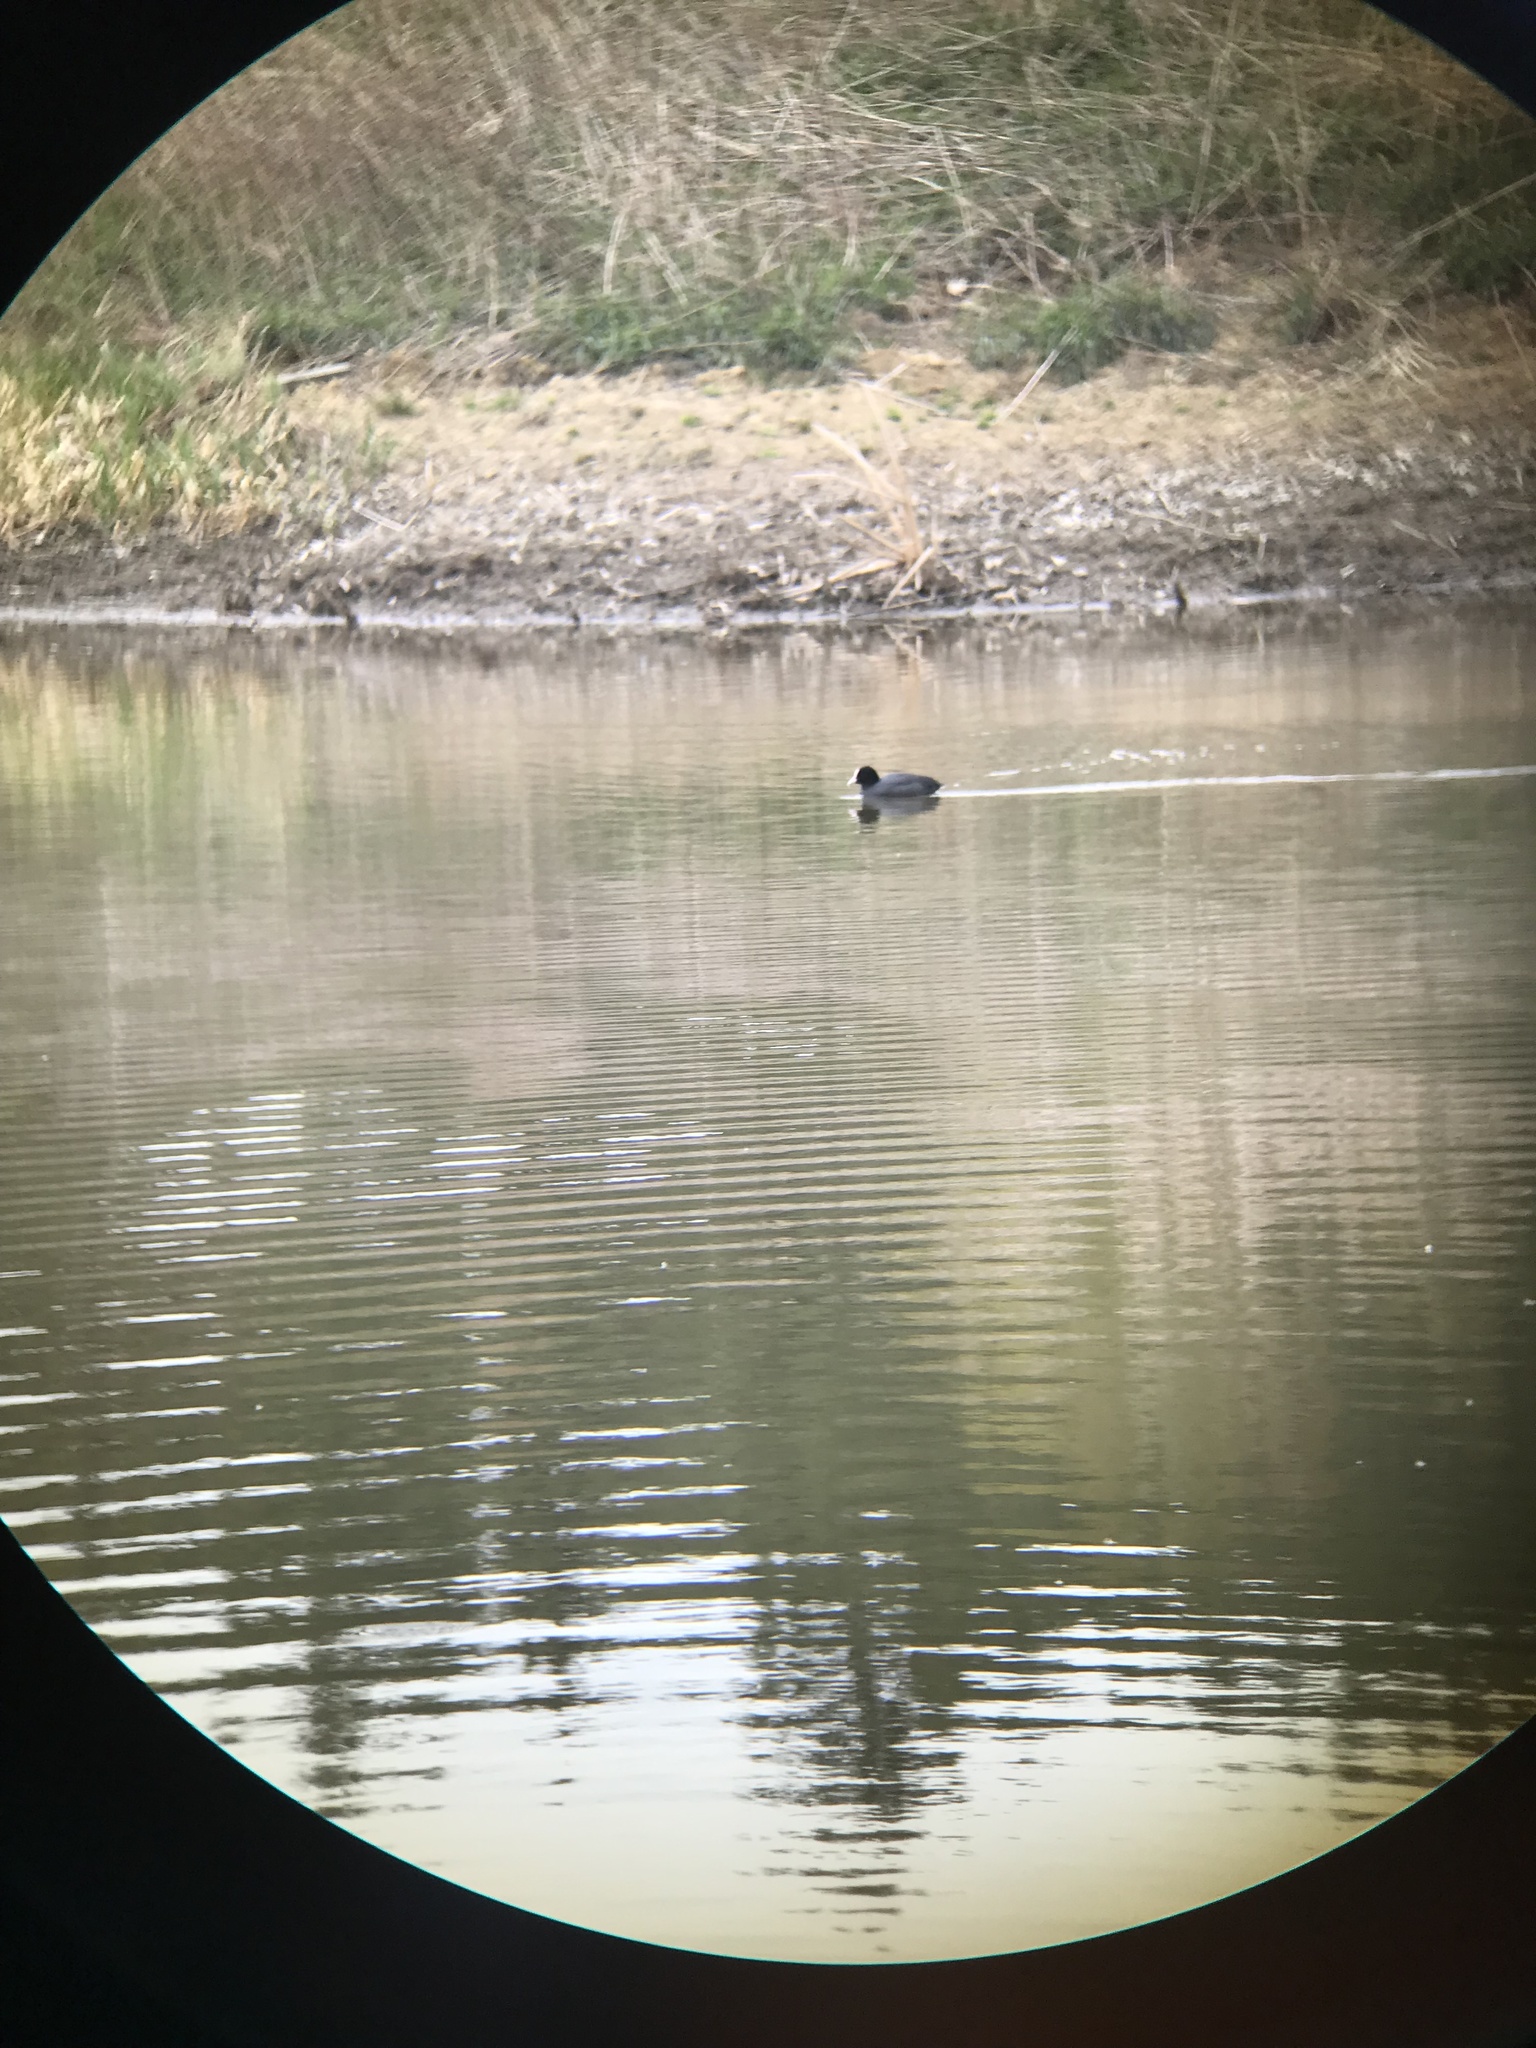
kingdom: Animalia
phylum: Chordata
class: Aves
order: Gruiformes
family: Rallidae
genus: Fulica
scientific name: Fulica atra
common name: Eurasian coot
